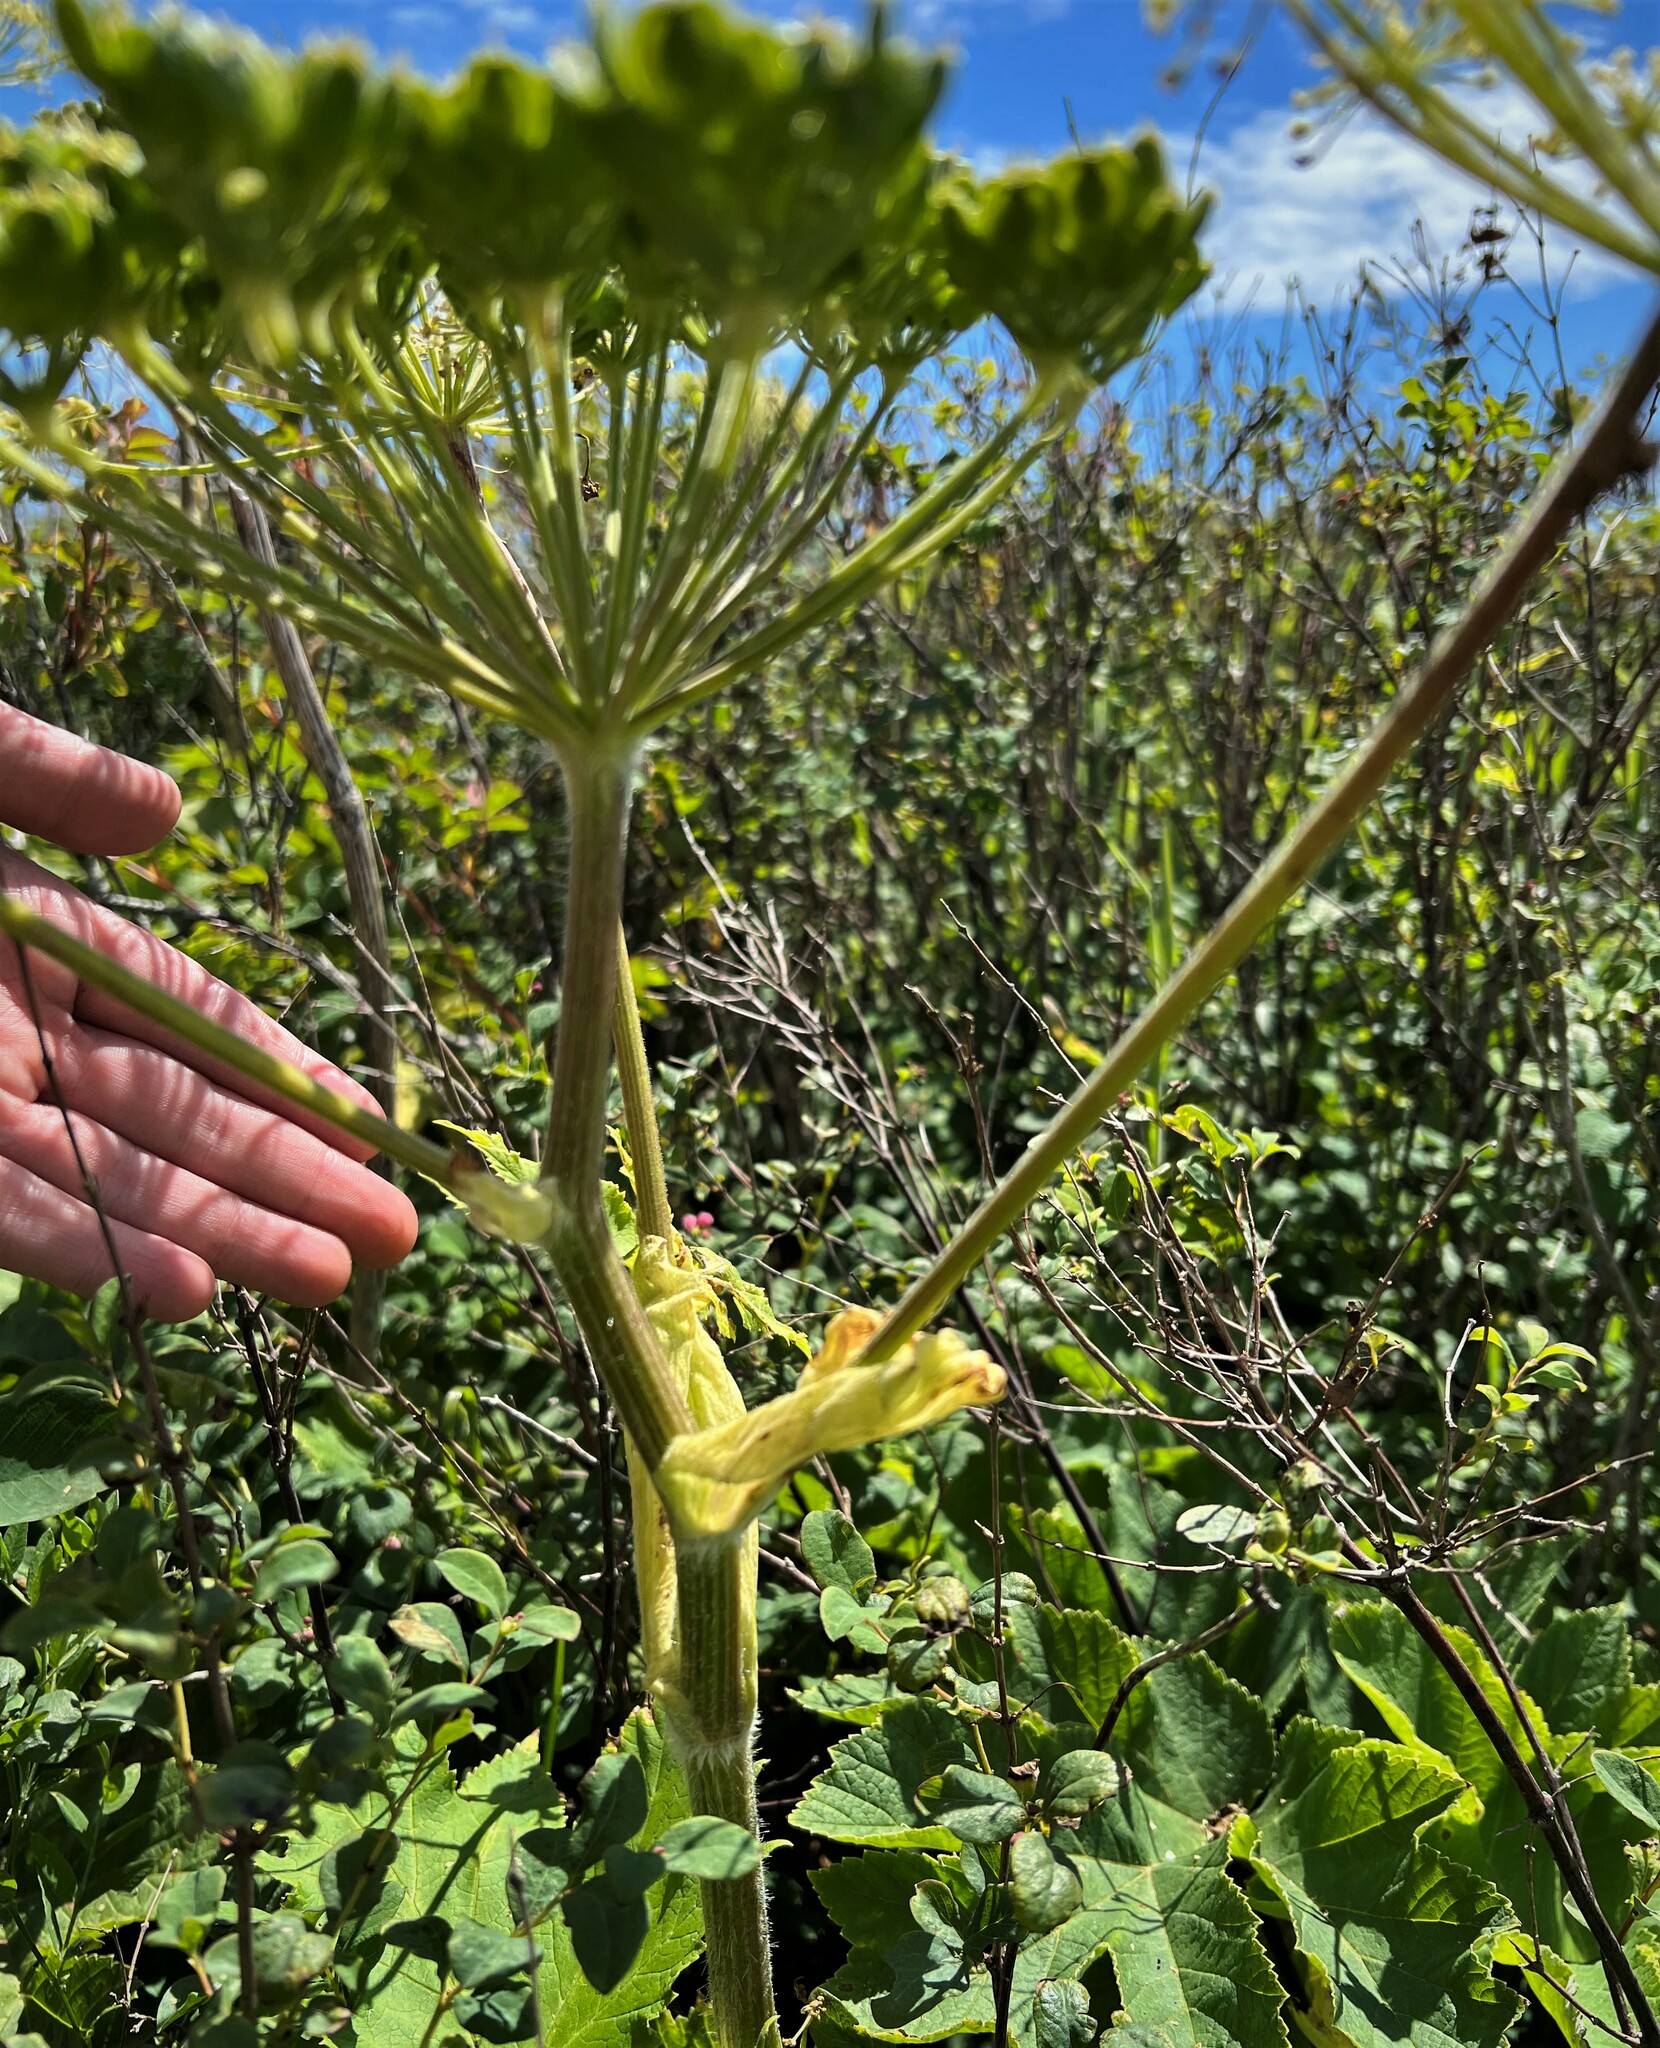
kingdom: Plantae
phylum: Tracheophyta
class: Magnoliopsida
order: Apiales
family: Apiaceae
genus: Heracleum
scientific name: Heracleum maximum
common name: American cow parsnip
